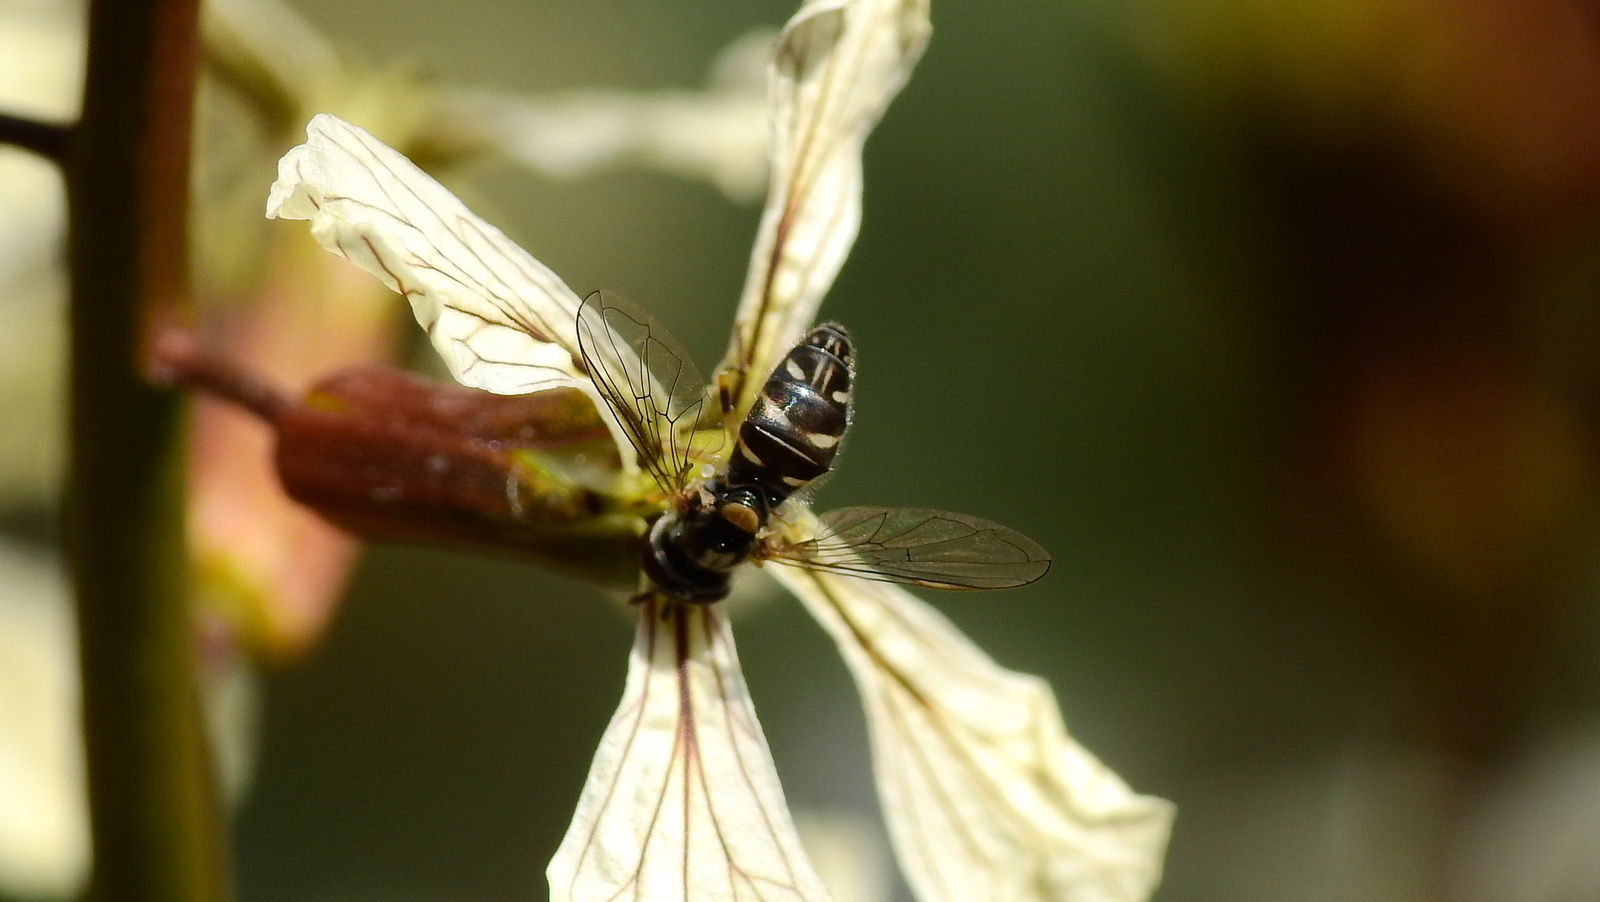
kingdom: Animalia
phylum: Arthropoda
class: Insecta
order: Diptera
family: Syrphidae
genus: Allograpta
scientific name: Allograpta exotica
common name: Syrphid fly
